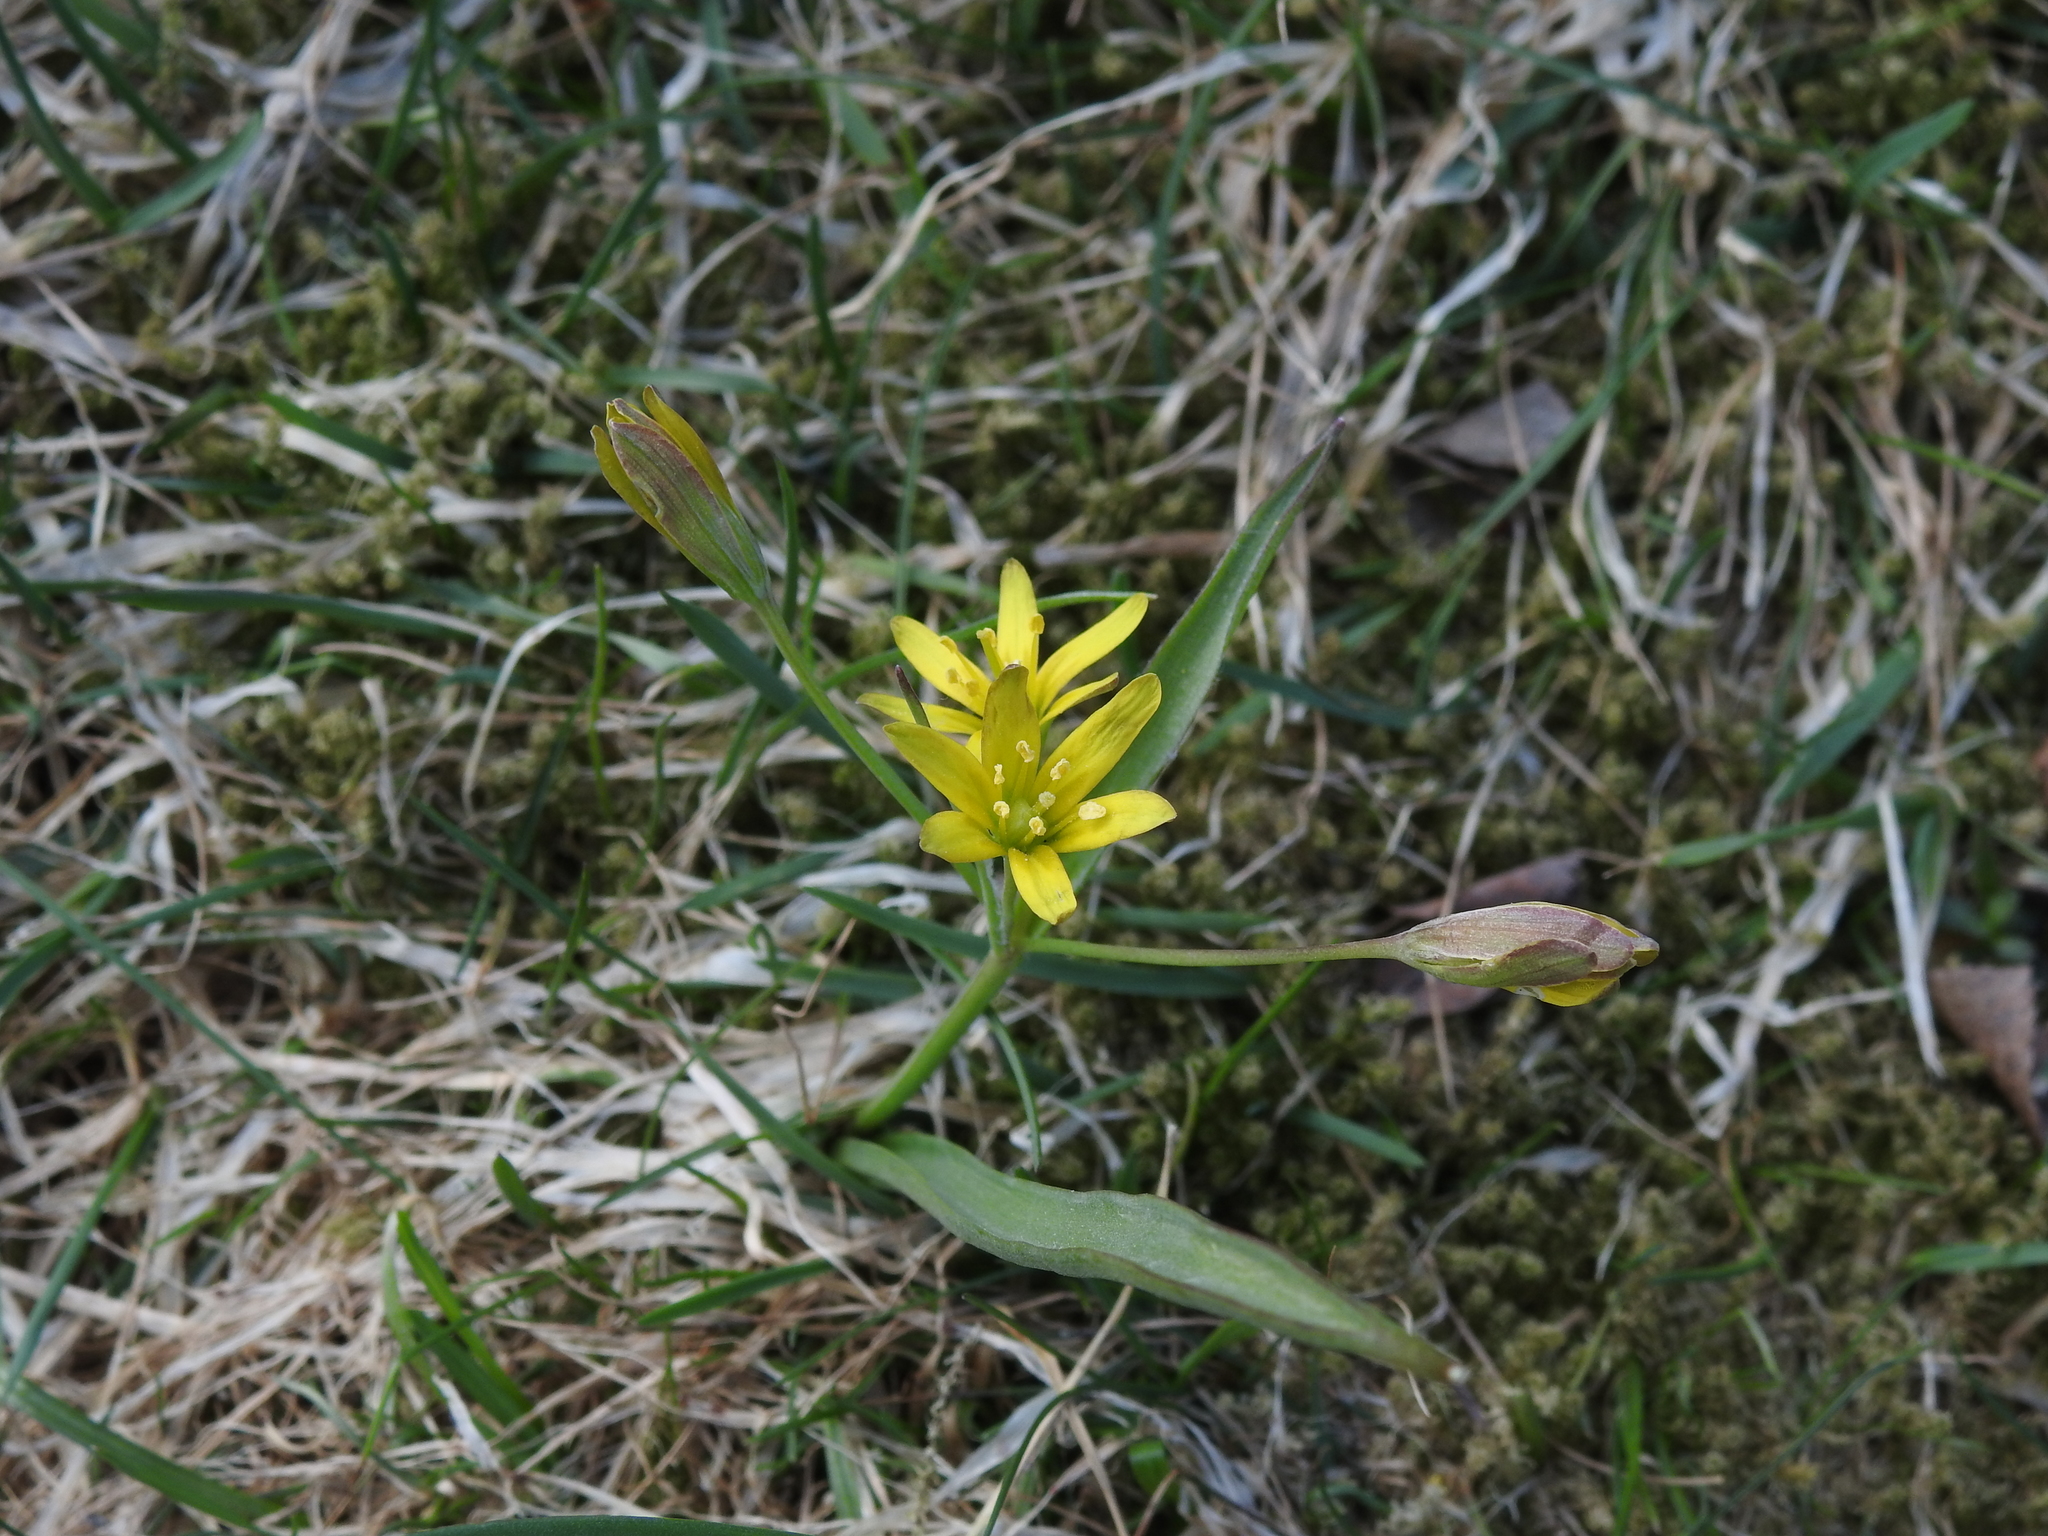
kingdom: Plantae
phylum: Tracheophyta
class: Liliopsida
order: Liliales
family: Liliaceae
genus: Gagea
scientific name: Gagea lutea
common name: Yellow star-of-bethlehem
